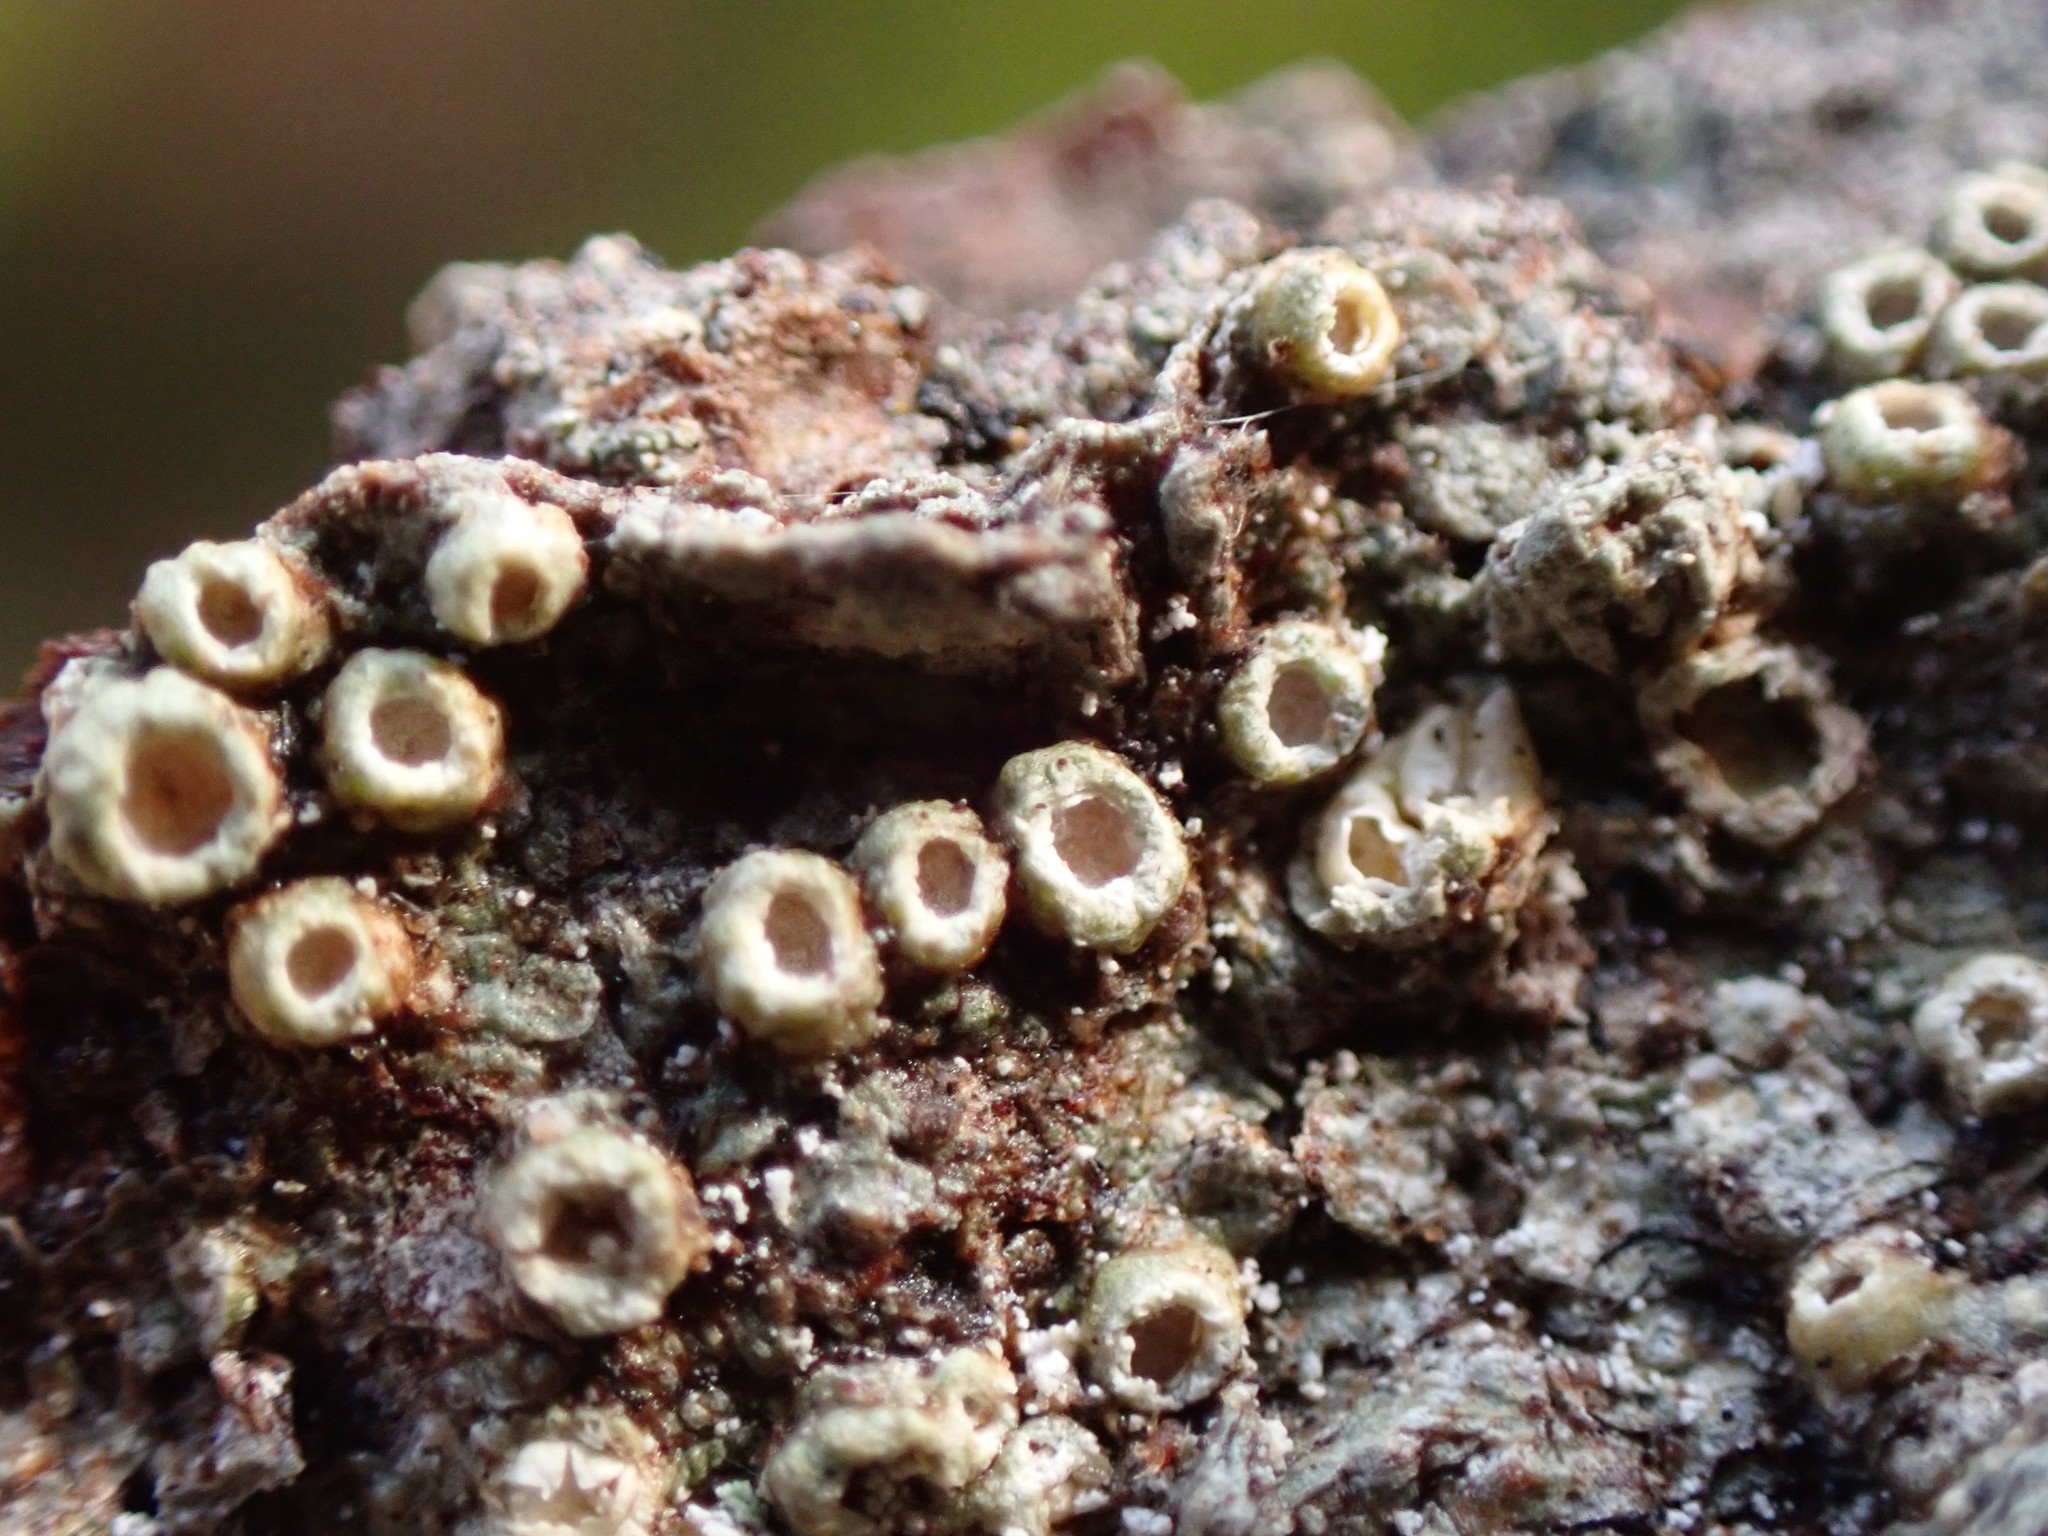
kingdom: Fungi
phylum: Ascomycota
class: Lecanoromycetes
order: Ostropales
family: Graphidaceae
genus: Thelotrema
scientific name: Thelotrema lepadinum
